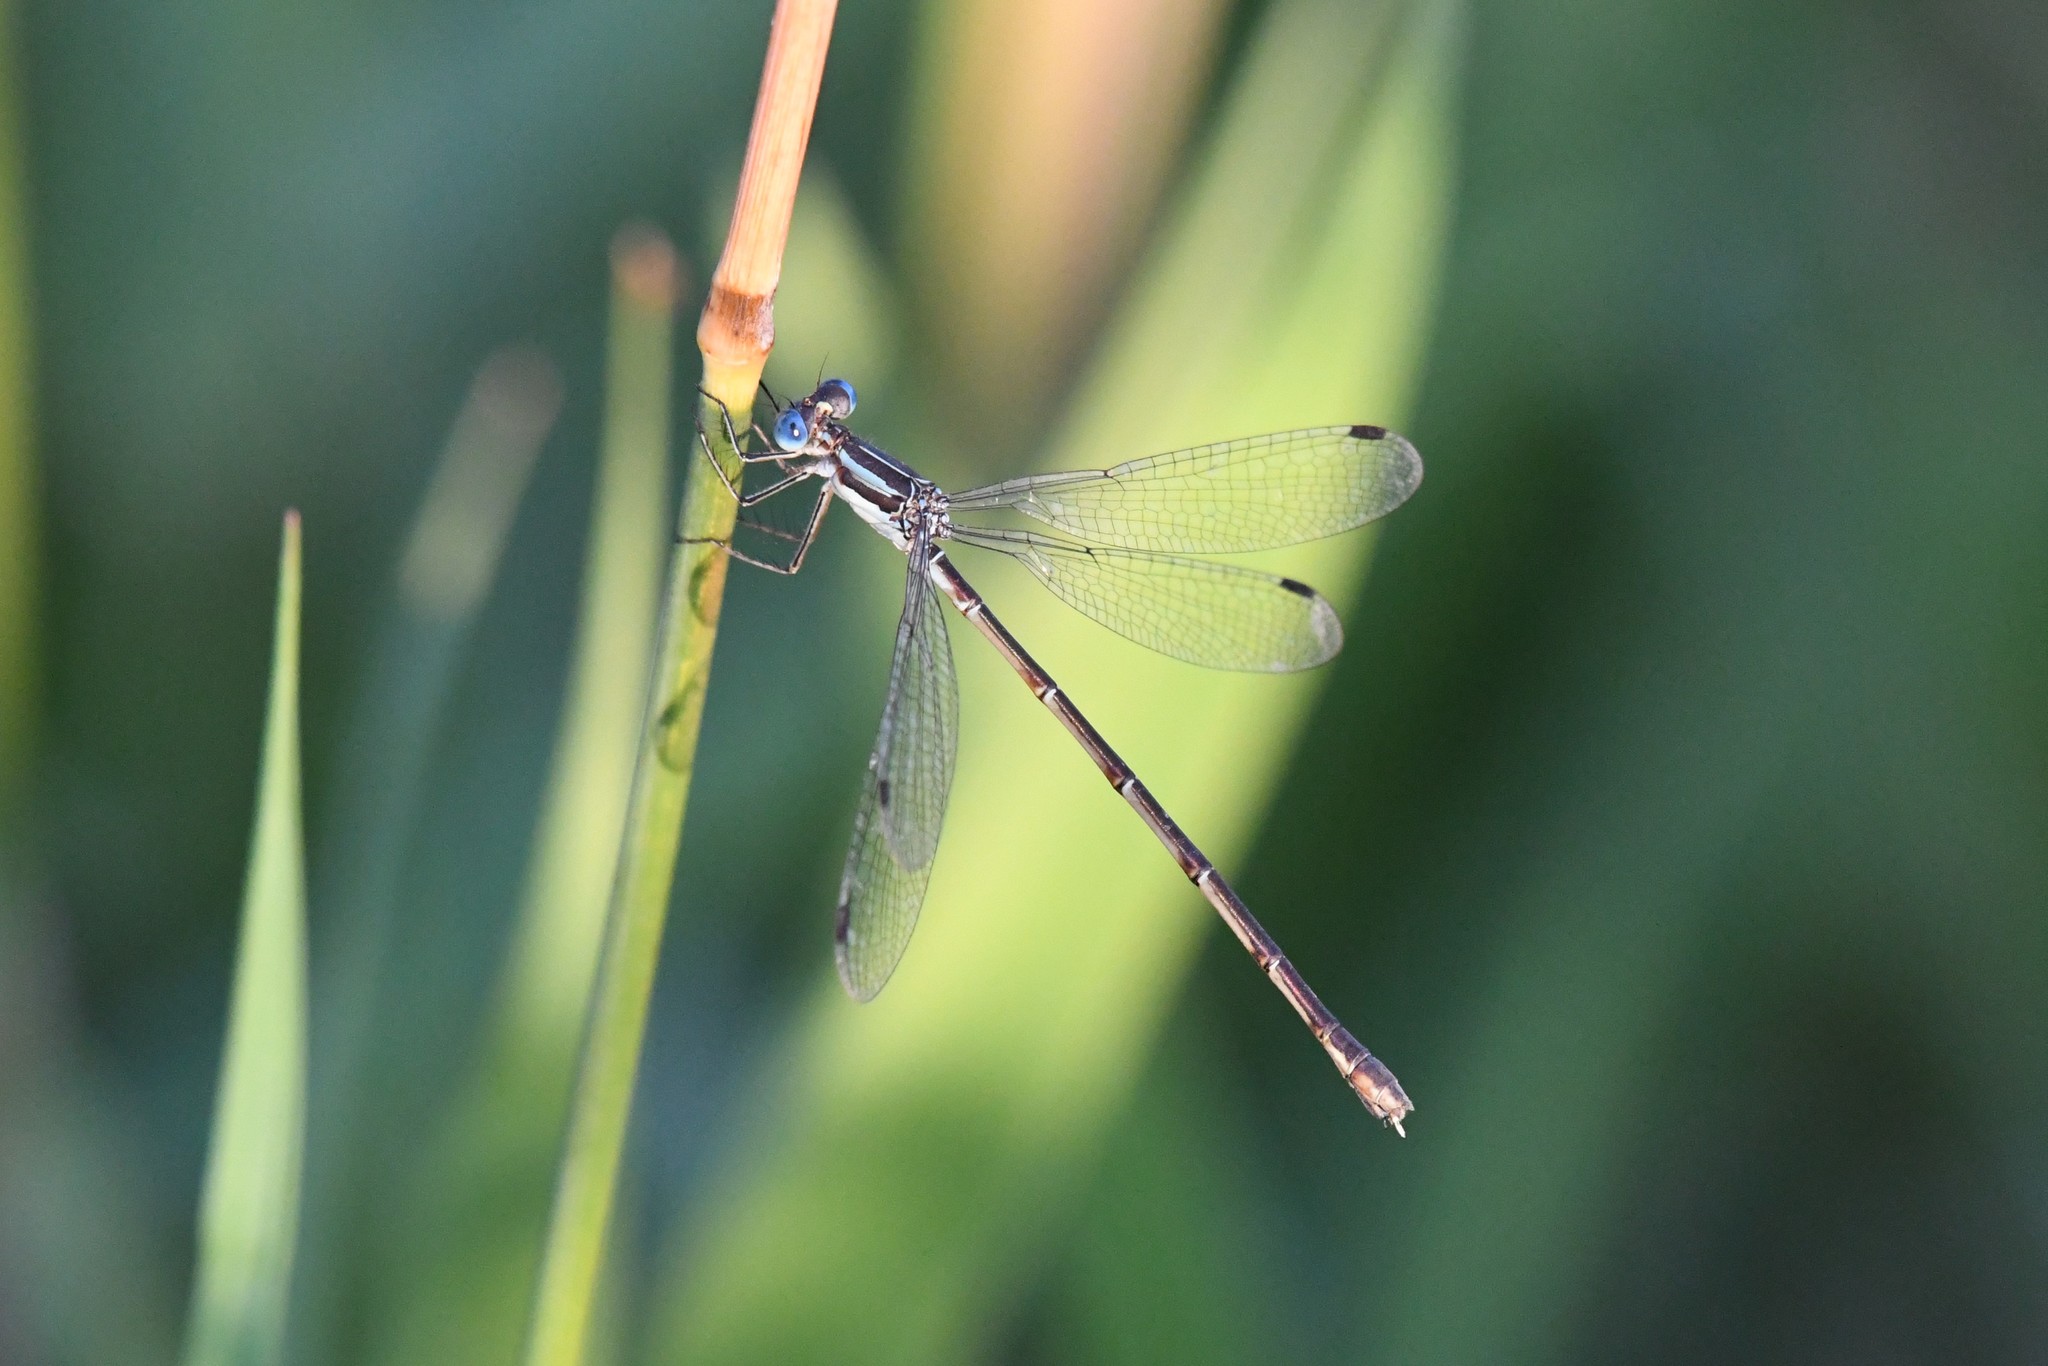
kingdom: Animalia
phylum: Arthropoda
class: Insecta
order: Odonata
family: Lestidae
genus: Lestes
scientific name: Lestes rectangularis
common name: Slender spreadwing
